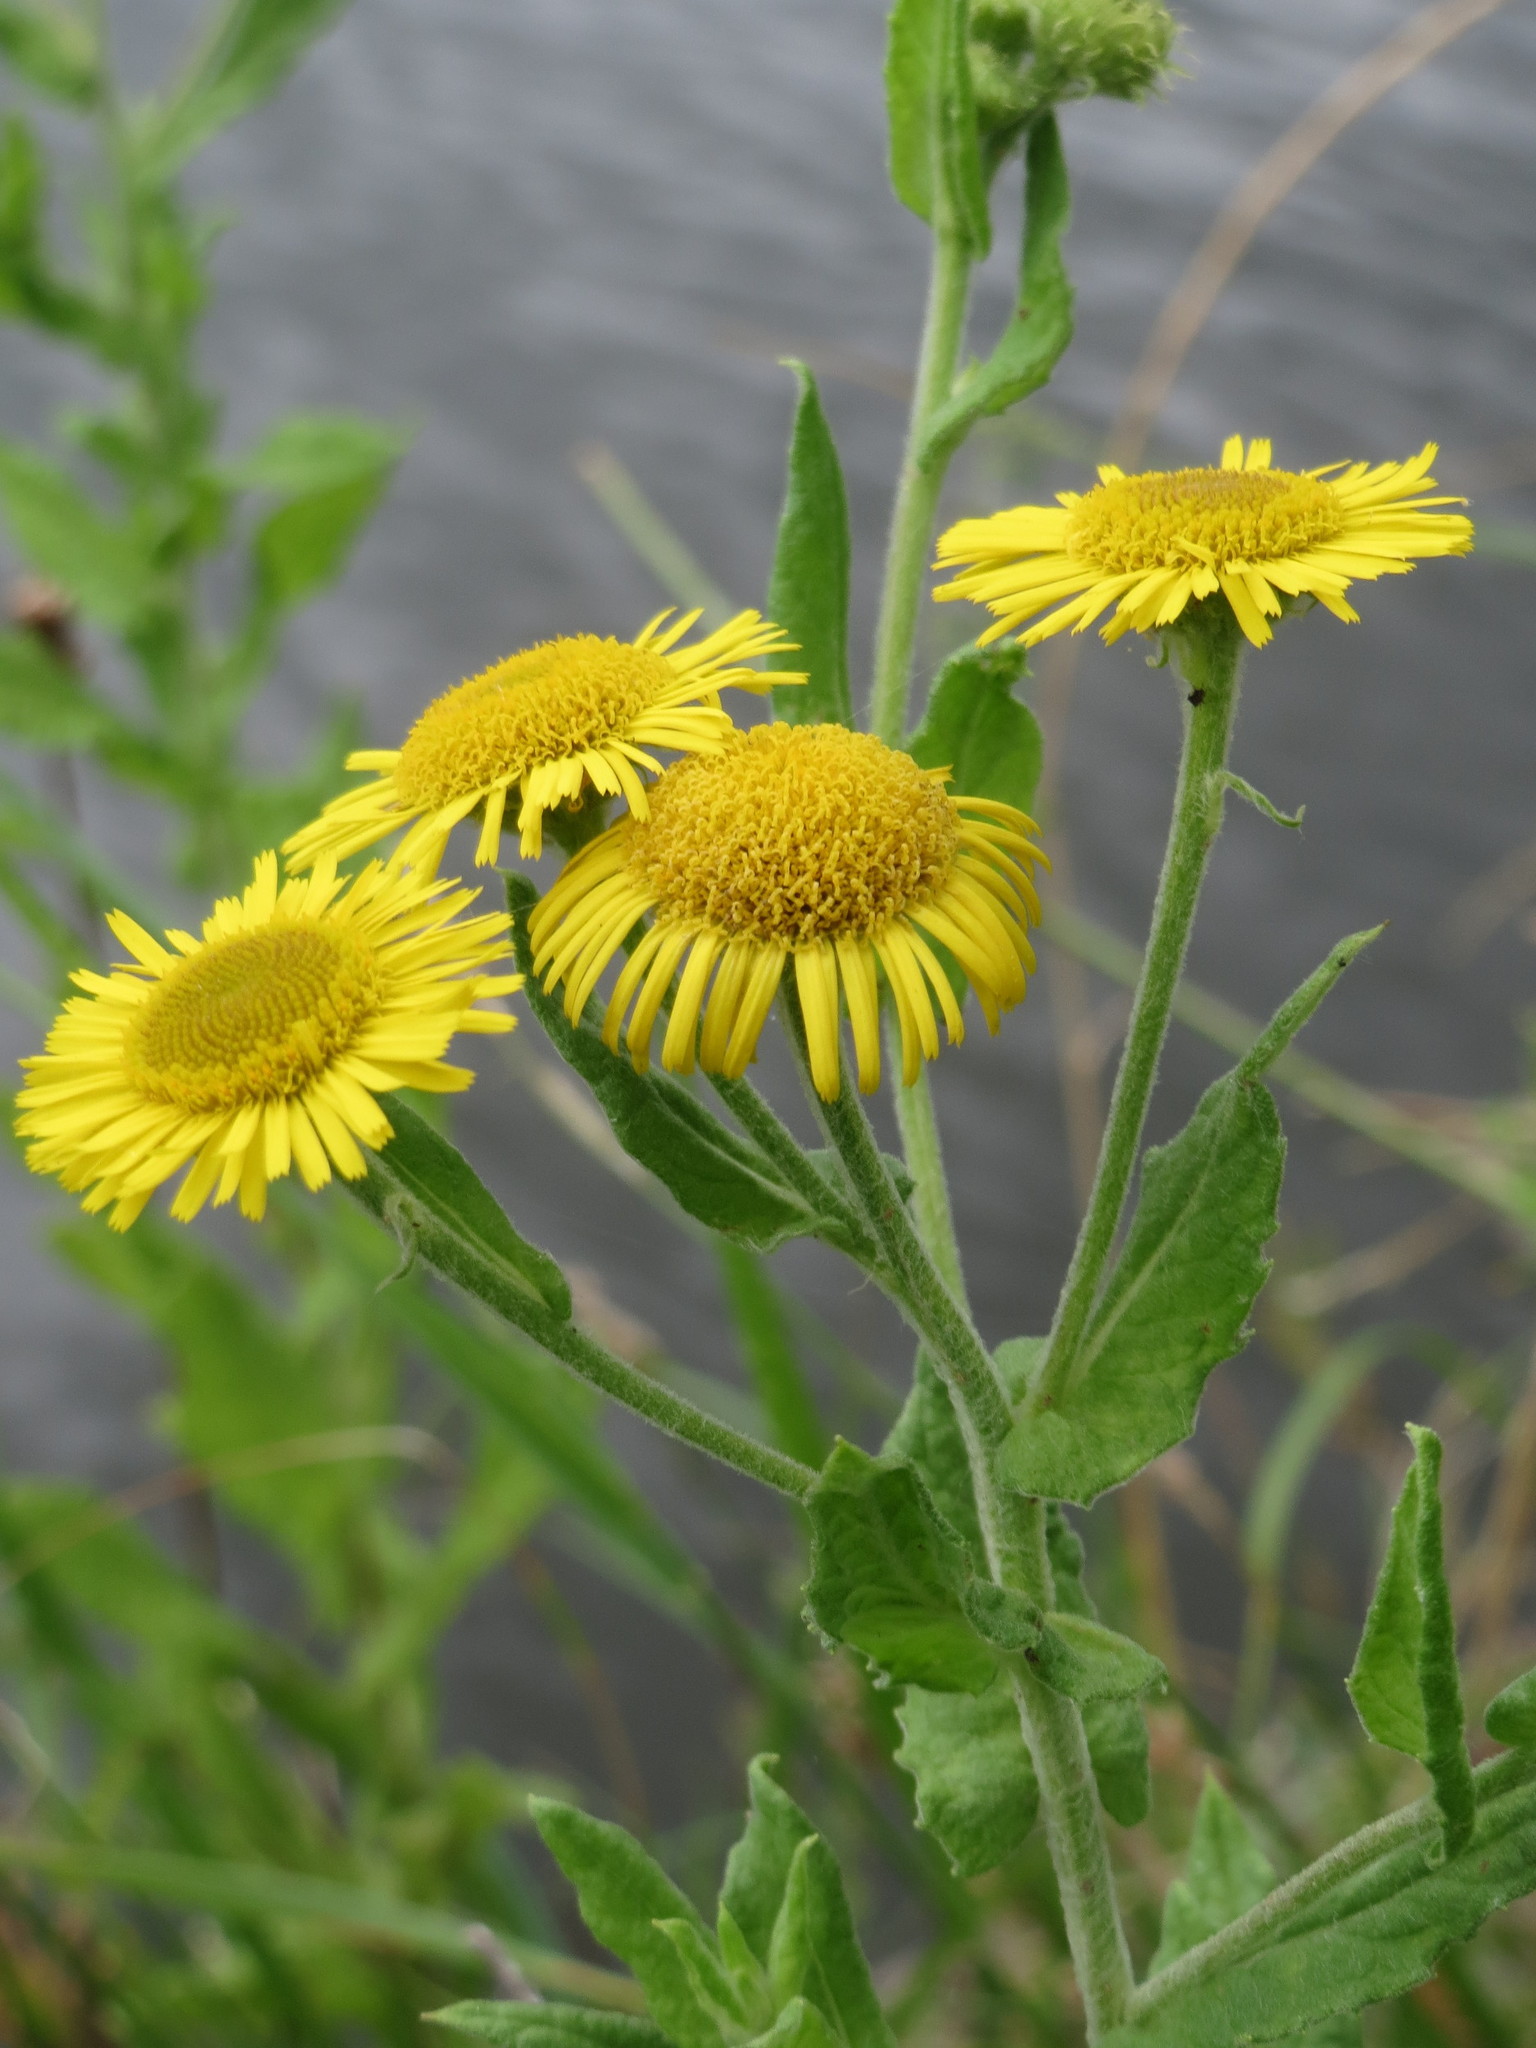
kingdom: Plantae
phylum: Tracheophyta
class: Magnoliopsida
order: Asterales
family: Asteraceae
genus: Pulicaria
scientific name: Pulicaria dysenterica
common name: Common fleabane
